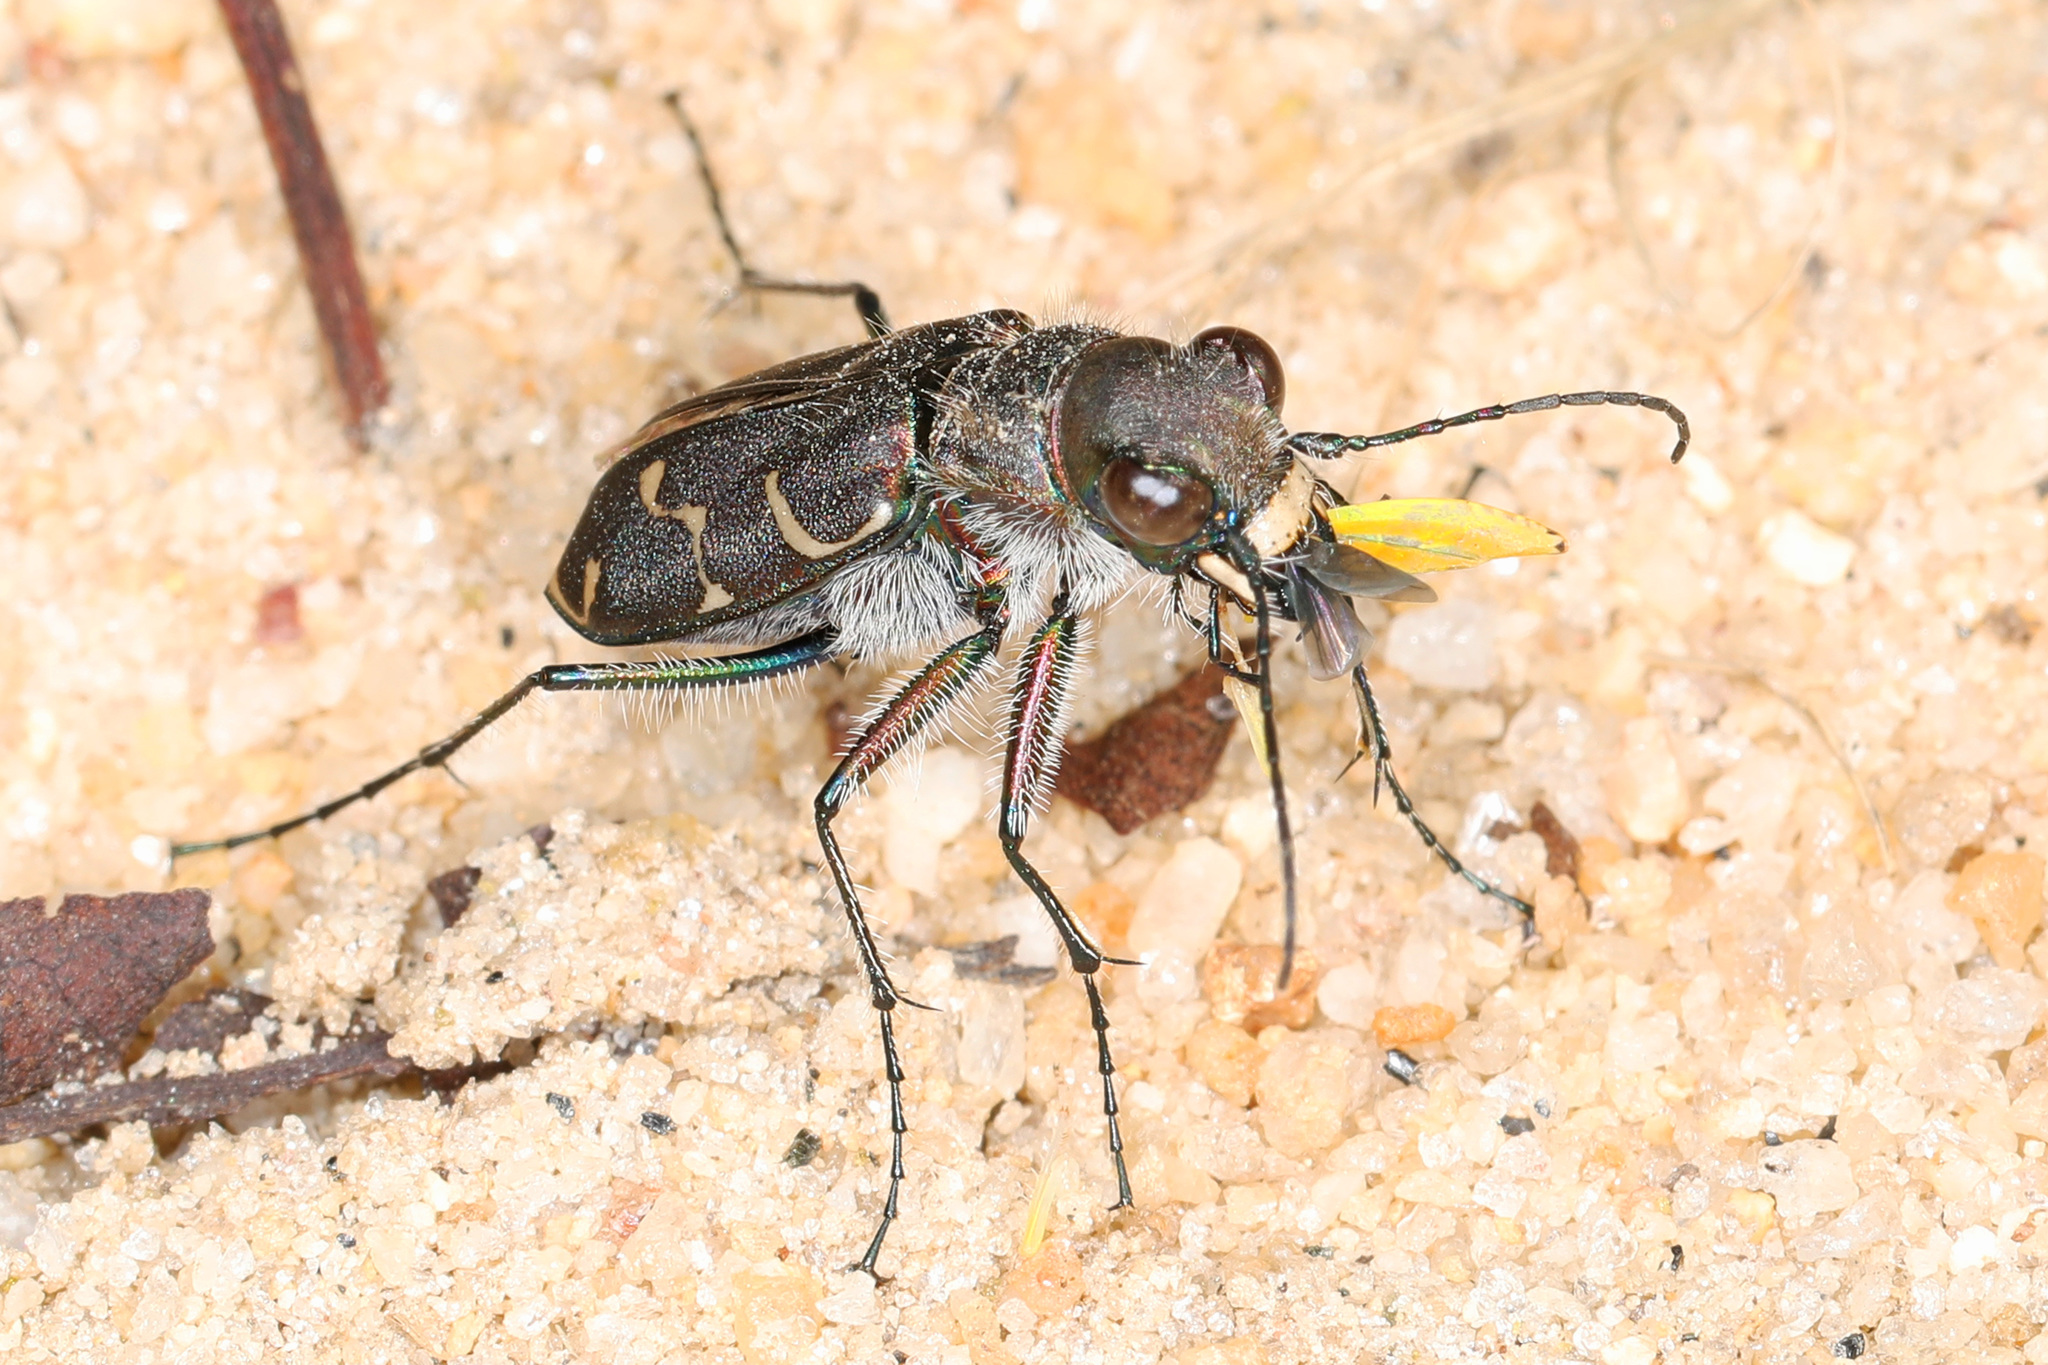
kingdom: Animalia
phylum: Arthropoda
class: Insecta
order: Coleoptera
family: Carabidae
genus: Cicindela
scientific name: Cicindela tranquebarica
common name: Oblique-lined tiger beetle
